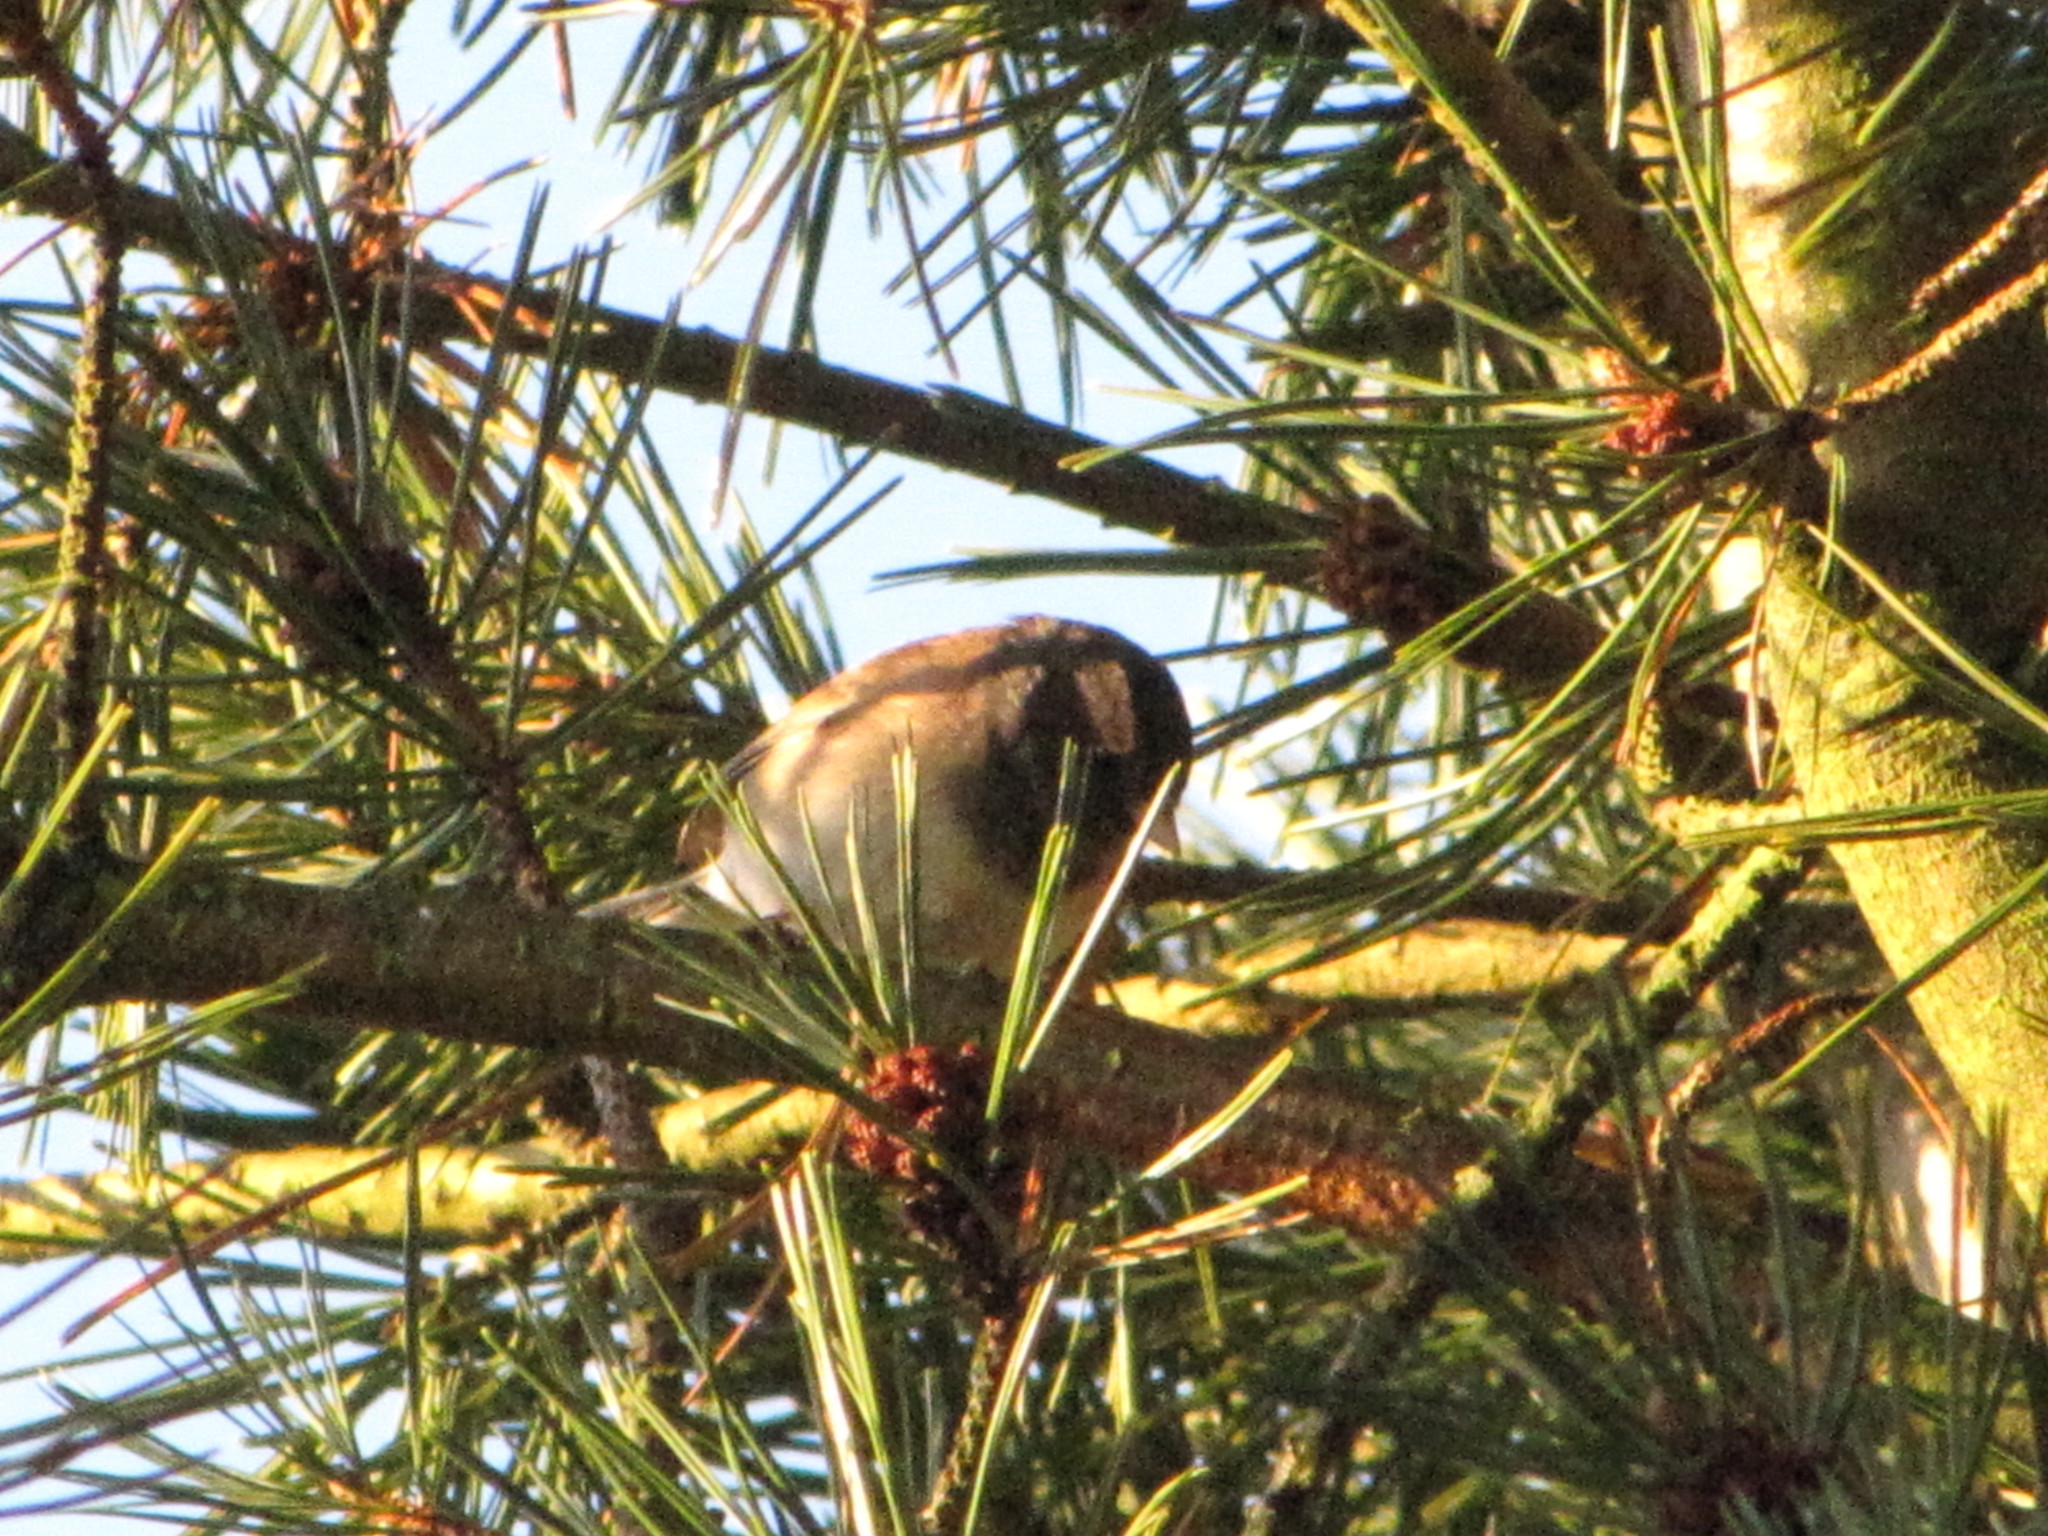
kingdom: Animalia
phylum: Chordata
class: Aves
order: Passeriformes
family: Passerellidae
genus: Junco
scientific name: Junco hyemalis
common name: Dark-eyed junco
